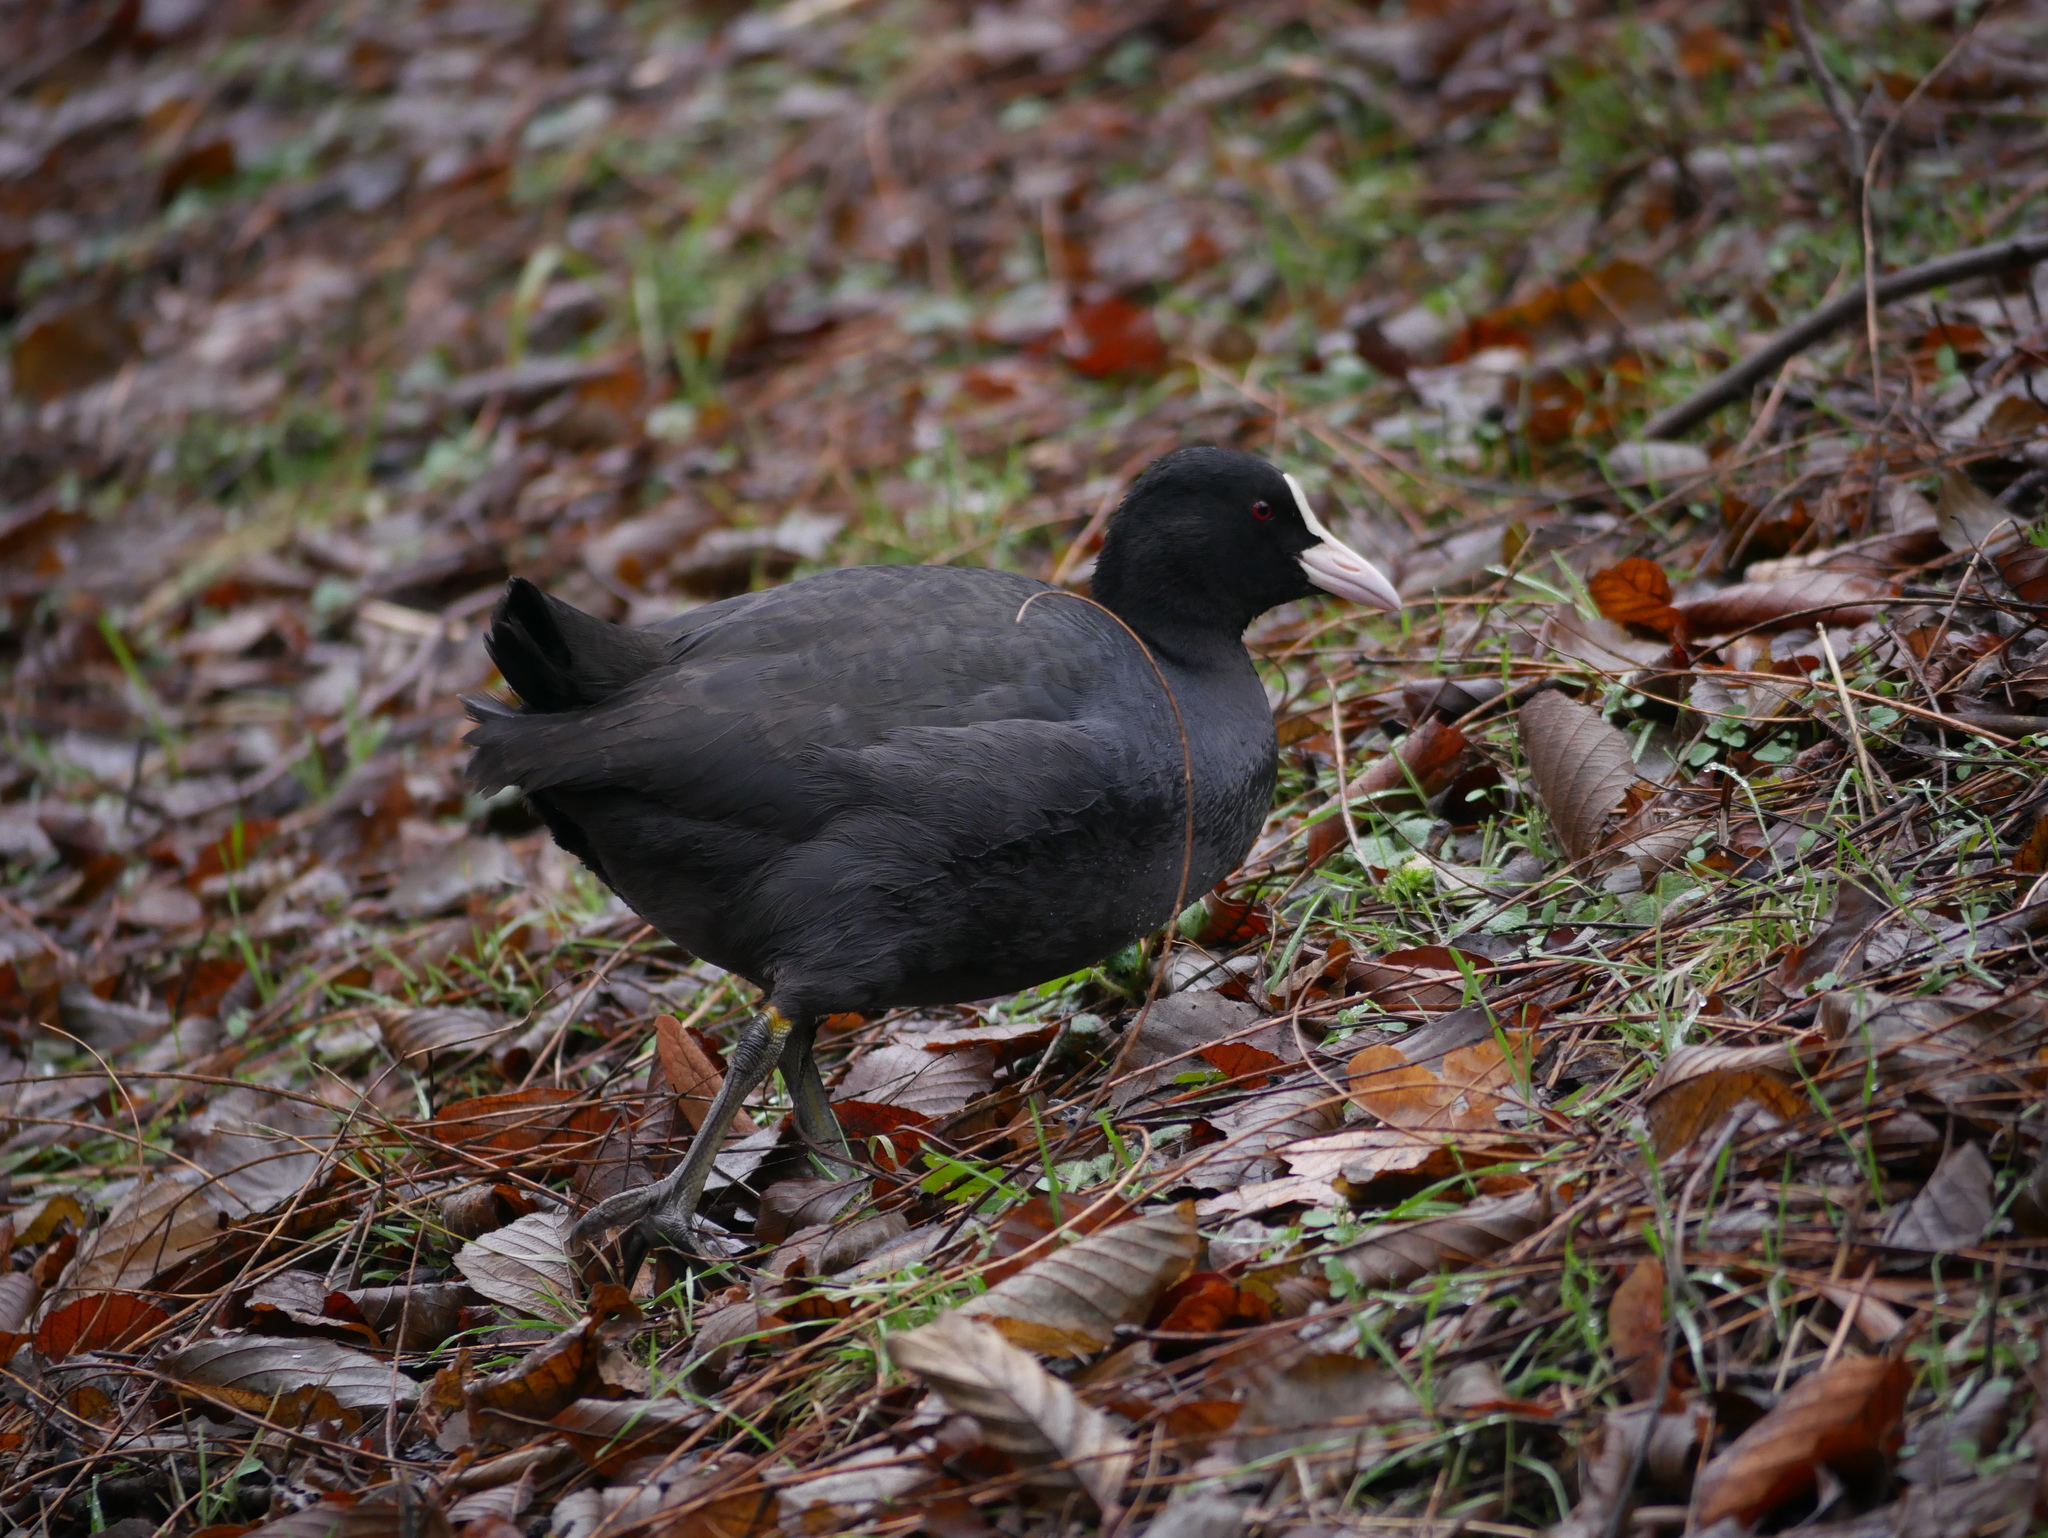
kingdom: Animalia
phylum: Chordata
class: Aves
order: Gruiformes
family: Rallidae
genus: Fulica
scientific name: Fulica atra
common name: Eurasian coot
